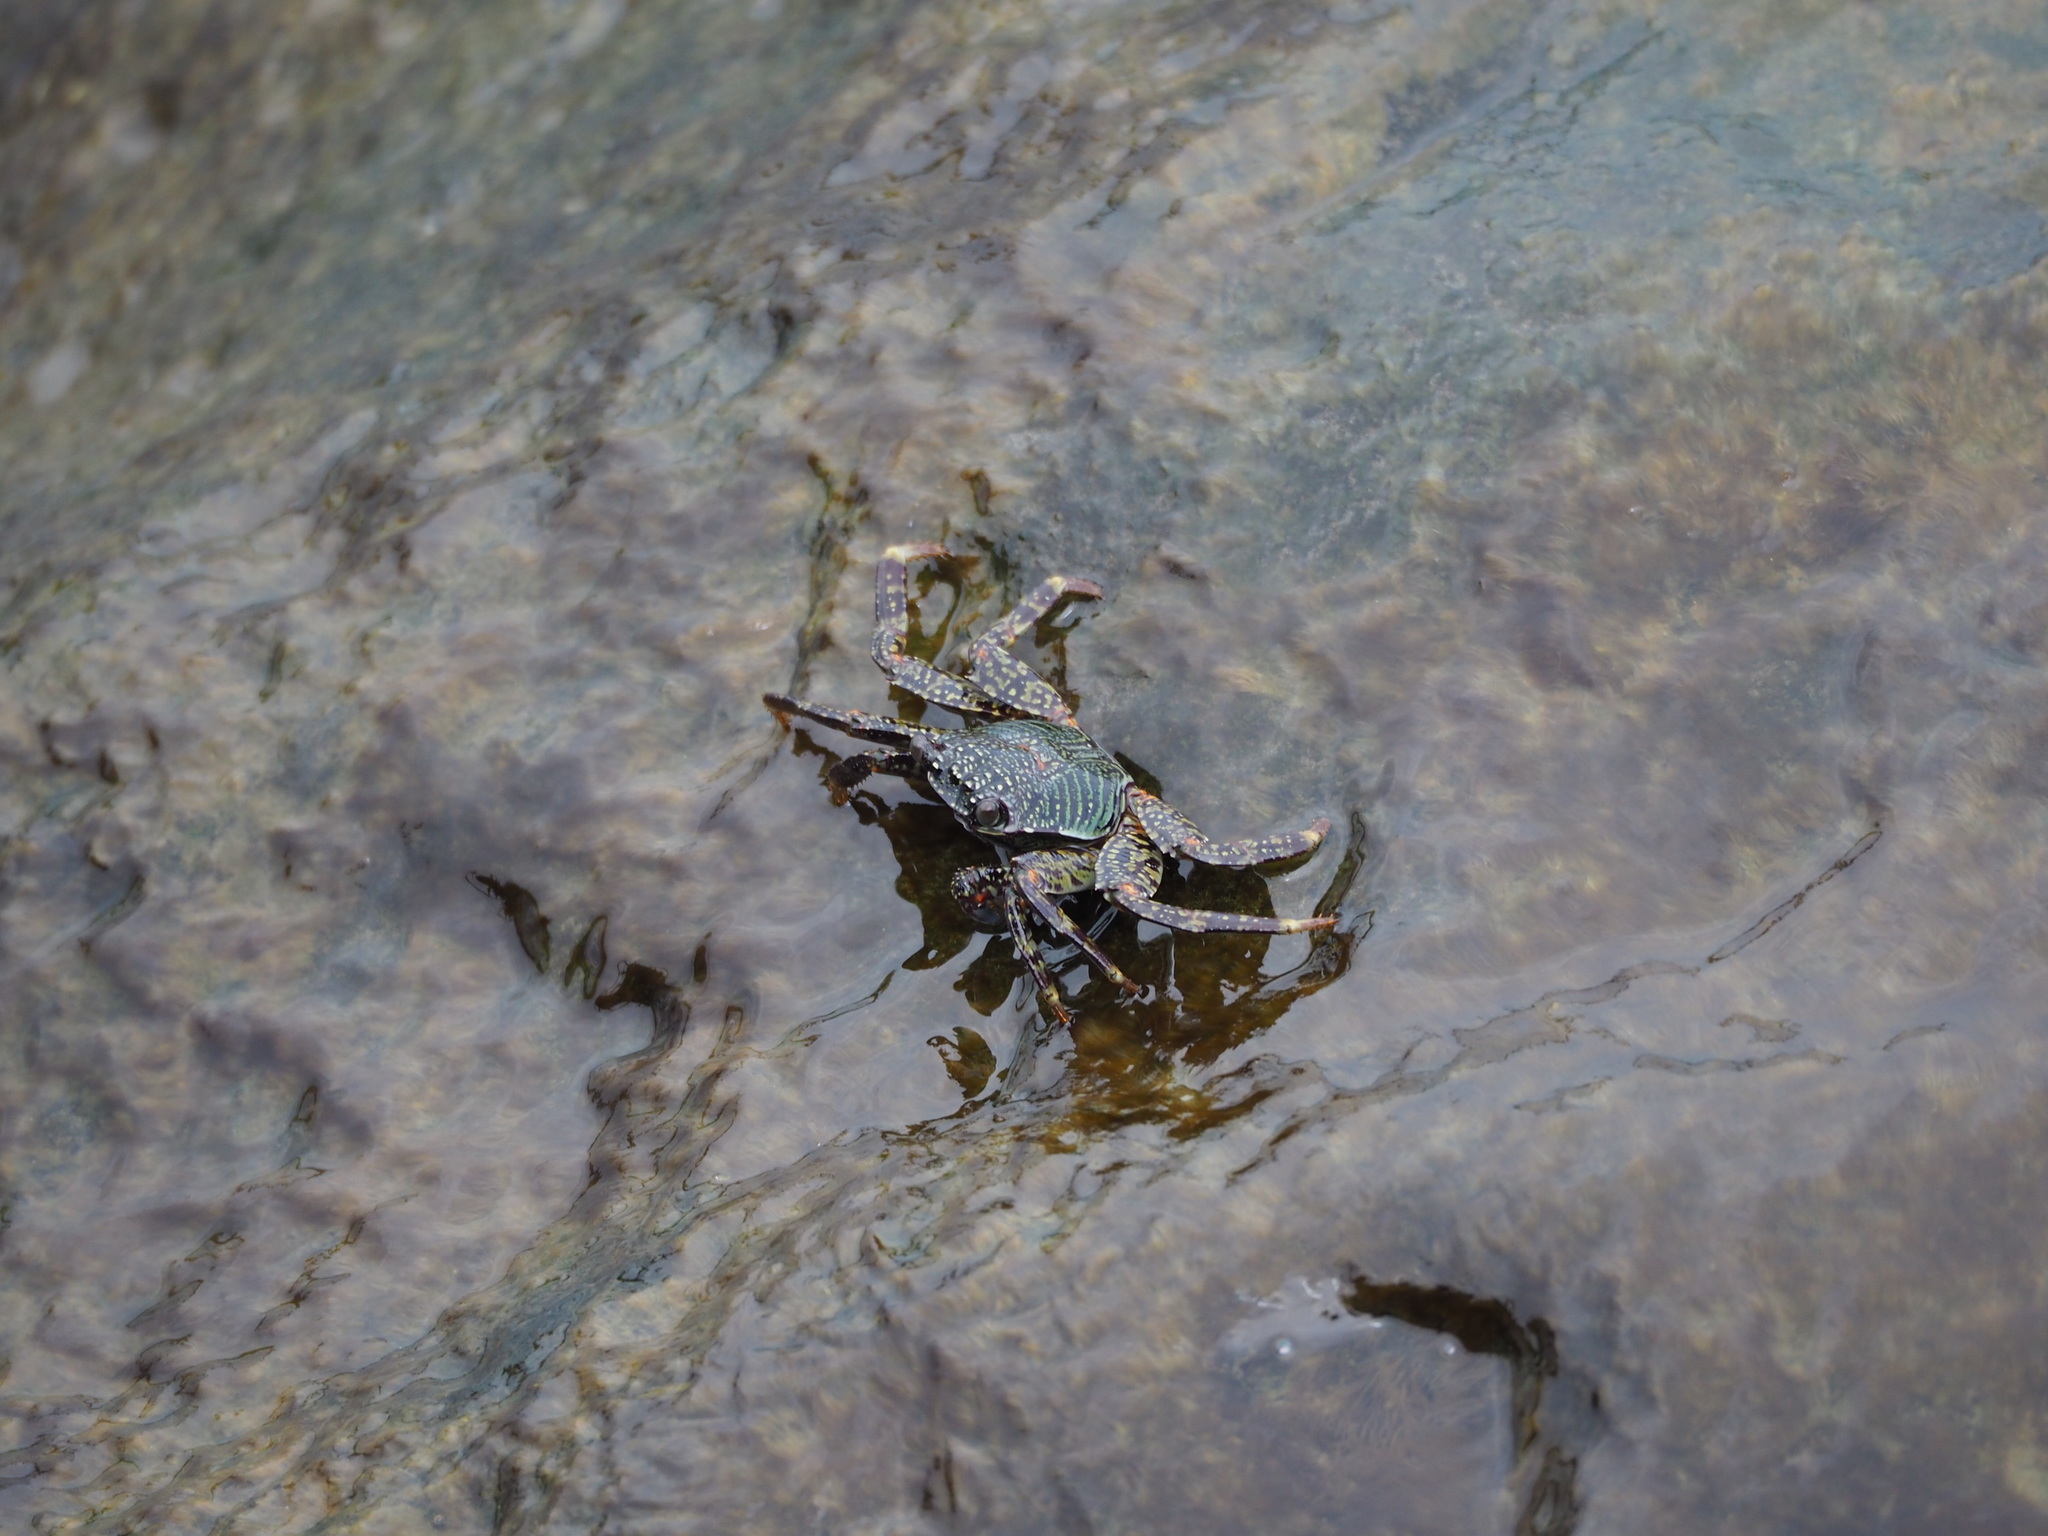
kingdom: Animalia
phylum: Arthropoda
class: Malacostraca
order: Decapoda
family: Grapsidae
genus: Grapsus
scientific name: Grapsus albolineatus
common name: Mottled lightfoot crab
